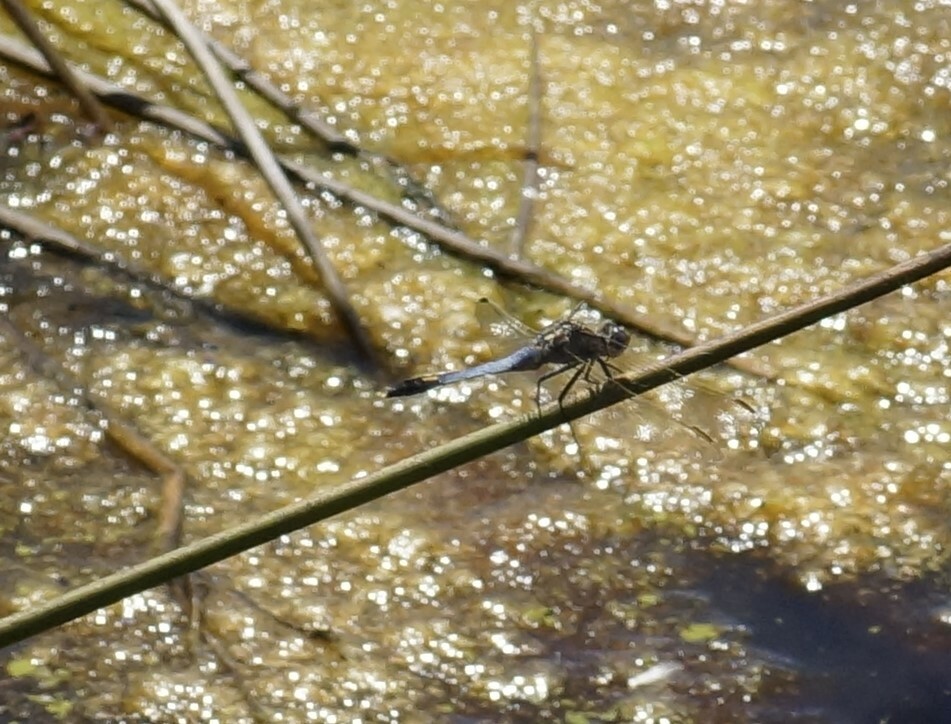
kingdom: Animalia
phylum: Arthropoda
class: Insecta
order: Odonata
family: Libellulidae
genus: Orthetrum
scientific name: Orthetrum caledonicum
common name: Blue skimmer
